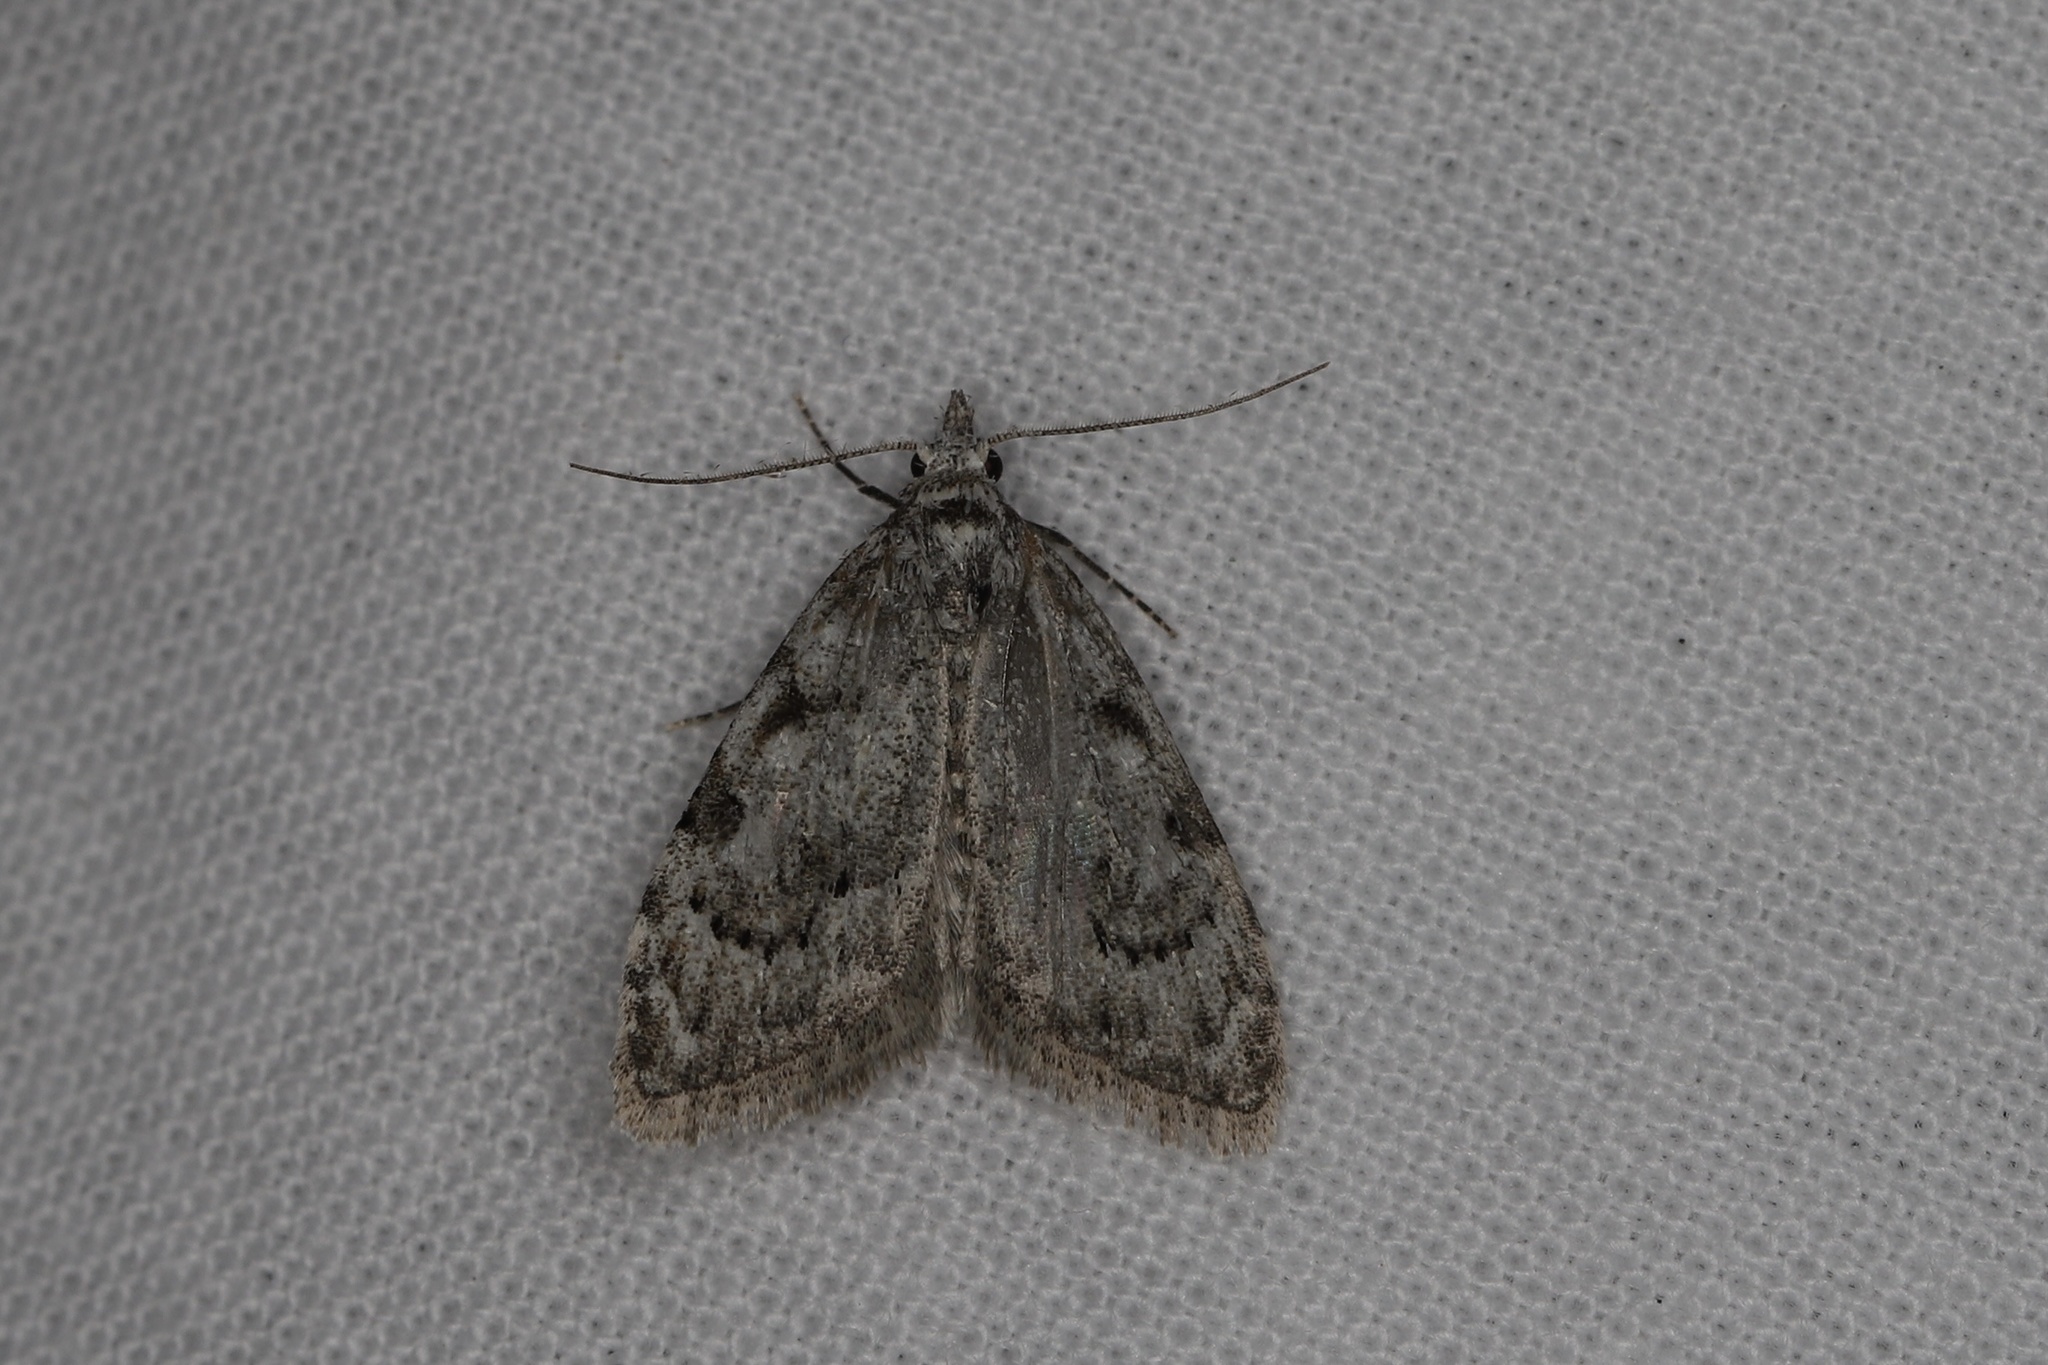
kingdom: Animalia
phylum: Arthropoda
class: Insecta
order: Lepidoptera
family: Nolidae
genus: Nola
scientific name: Nola confusalis
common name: Least black arches
